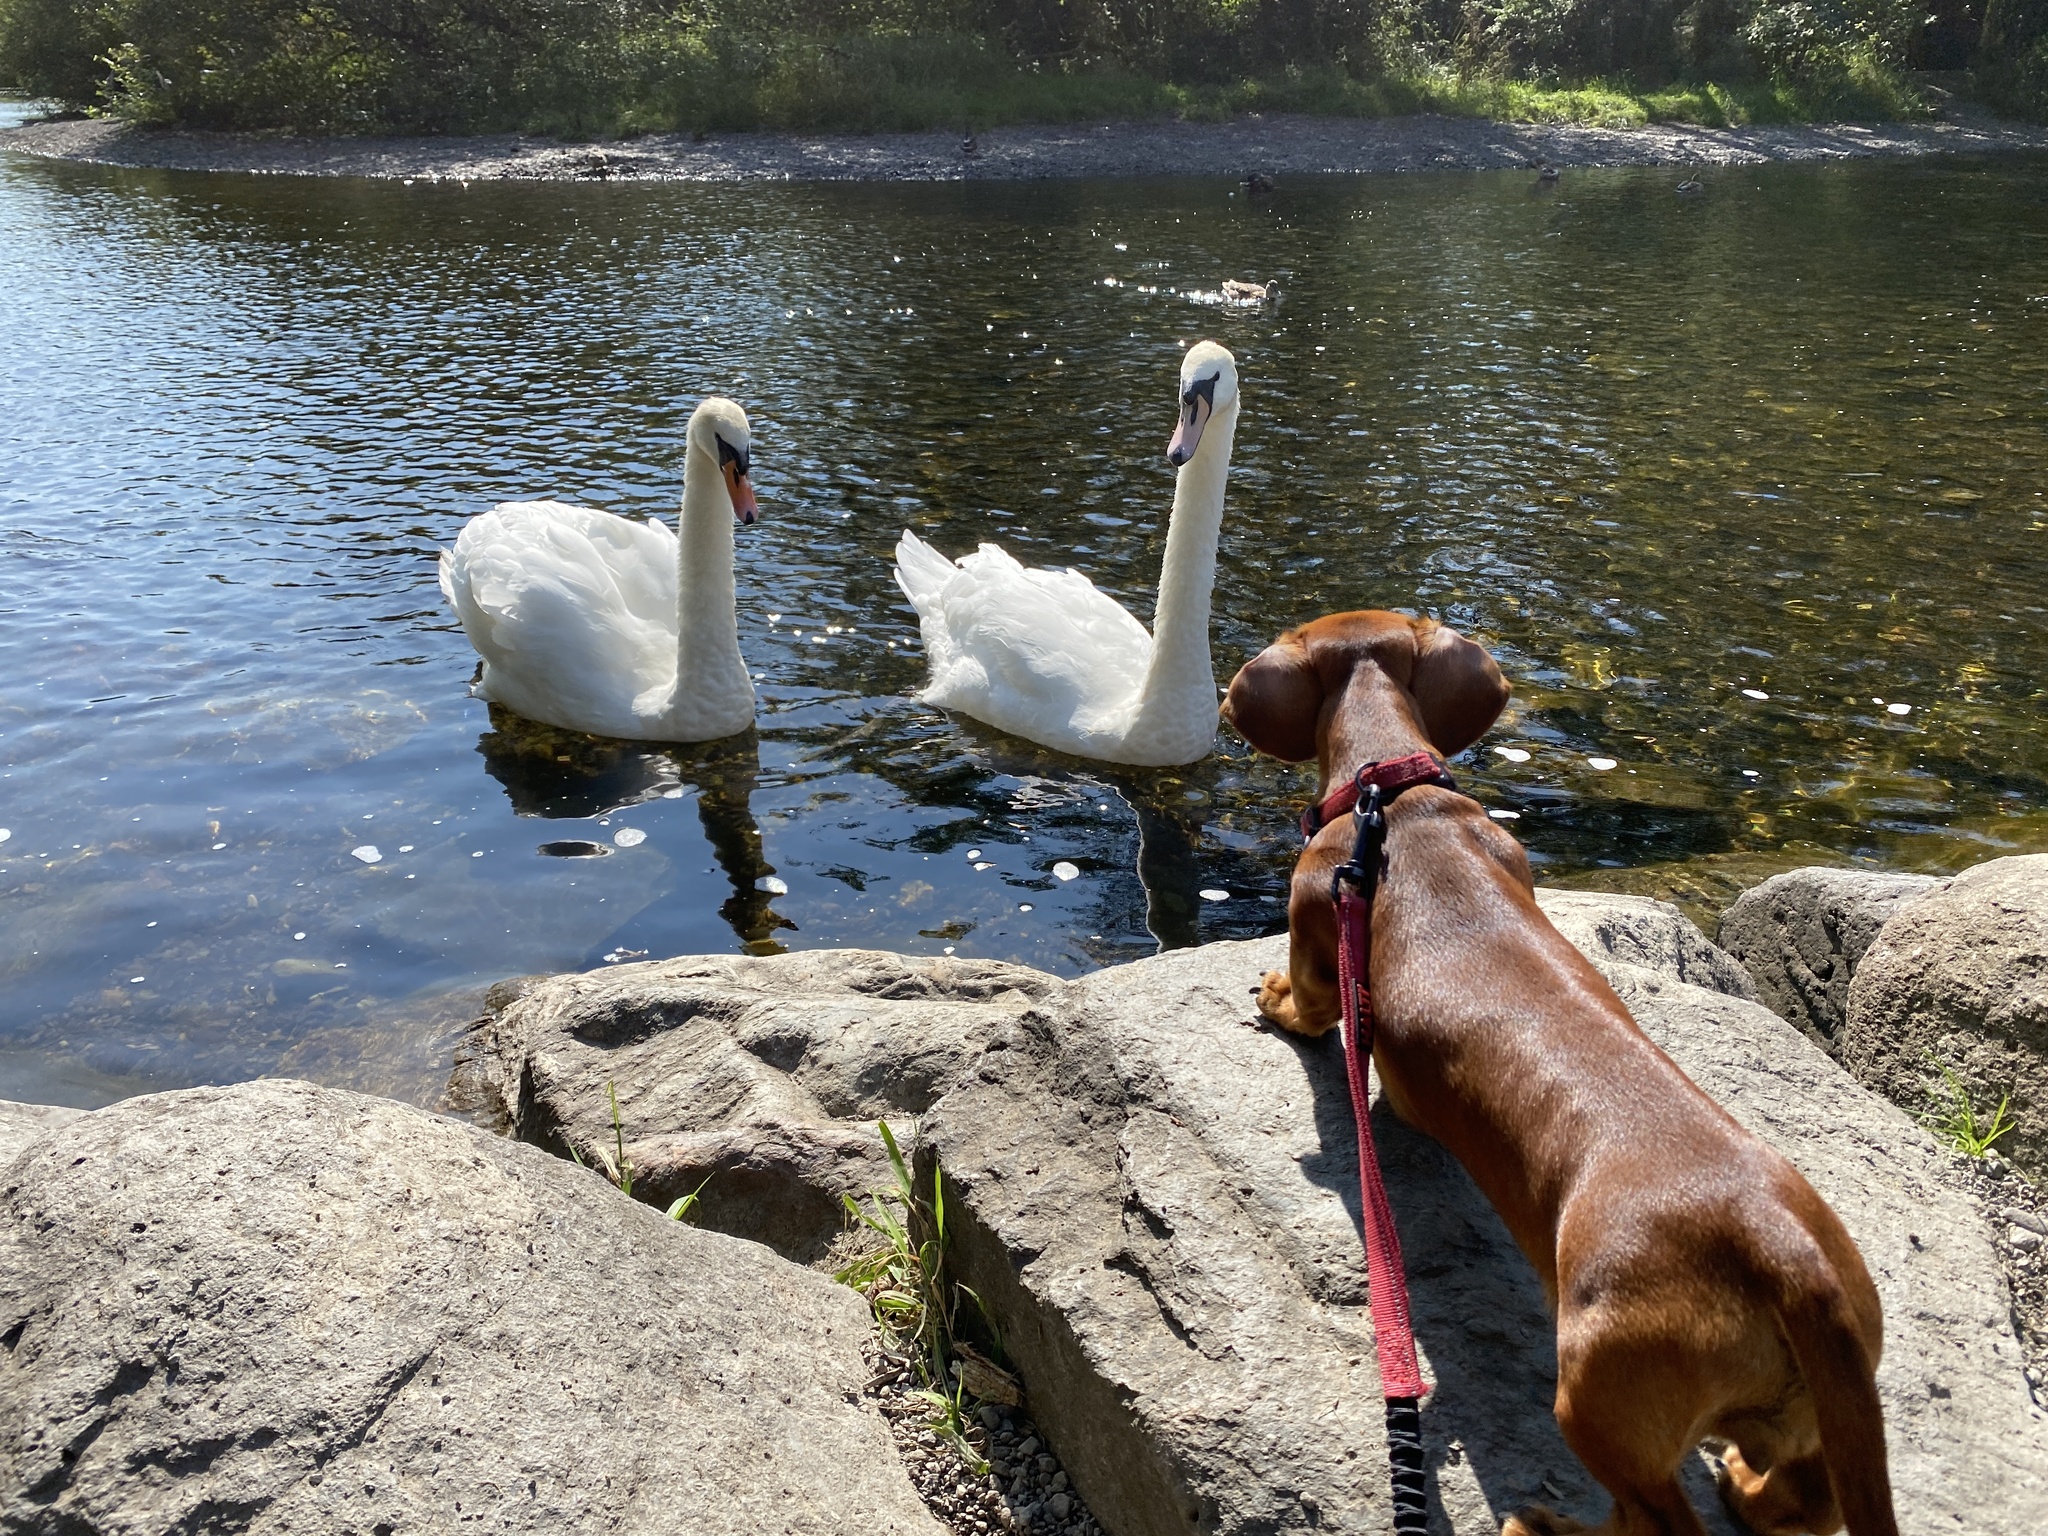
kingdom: Animalia
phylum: Chordata
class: Aves
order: Anseriformes
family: Anatidae
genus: Cygnus
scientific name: Cygnus olor
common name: Mute swan
